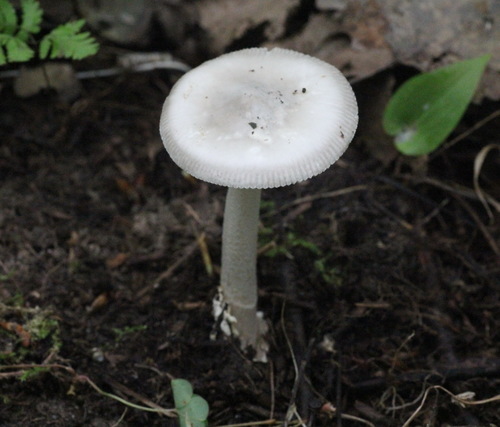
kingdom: Fungi
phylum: Basidiomycota
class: Agaricomycetes
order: Agaricales
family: Amanitaceae
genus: Amanita
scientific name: Amanita vaginata
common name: Grisette
